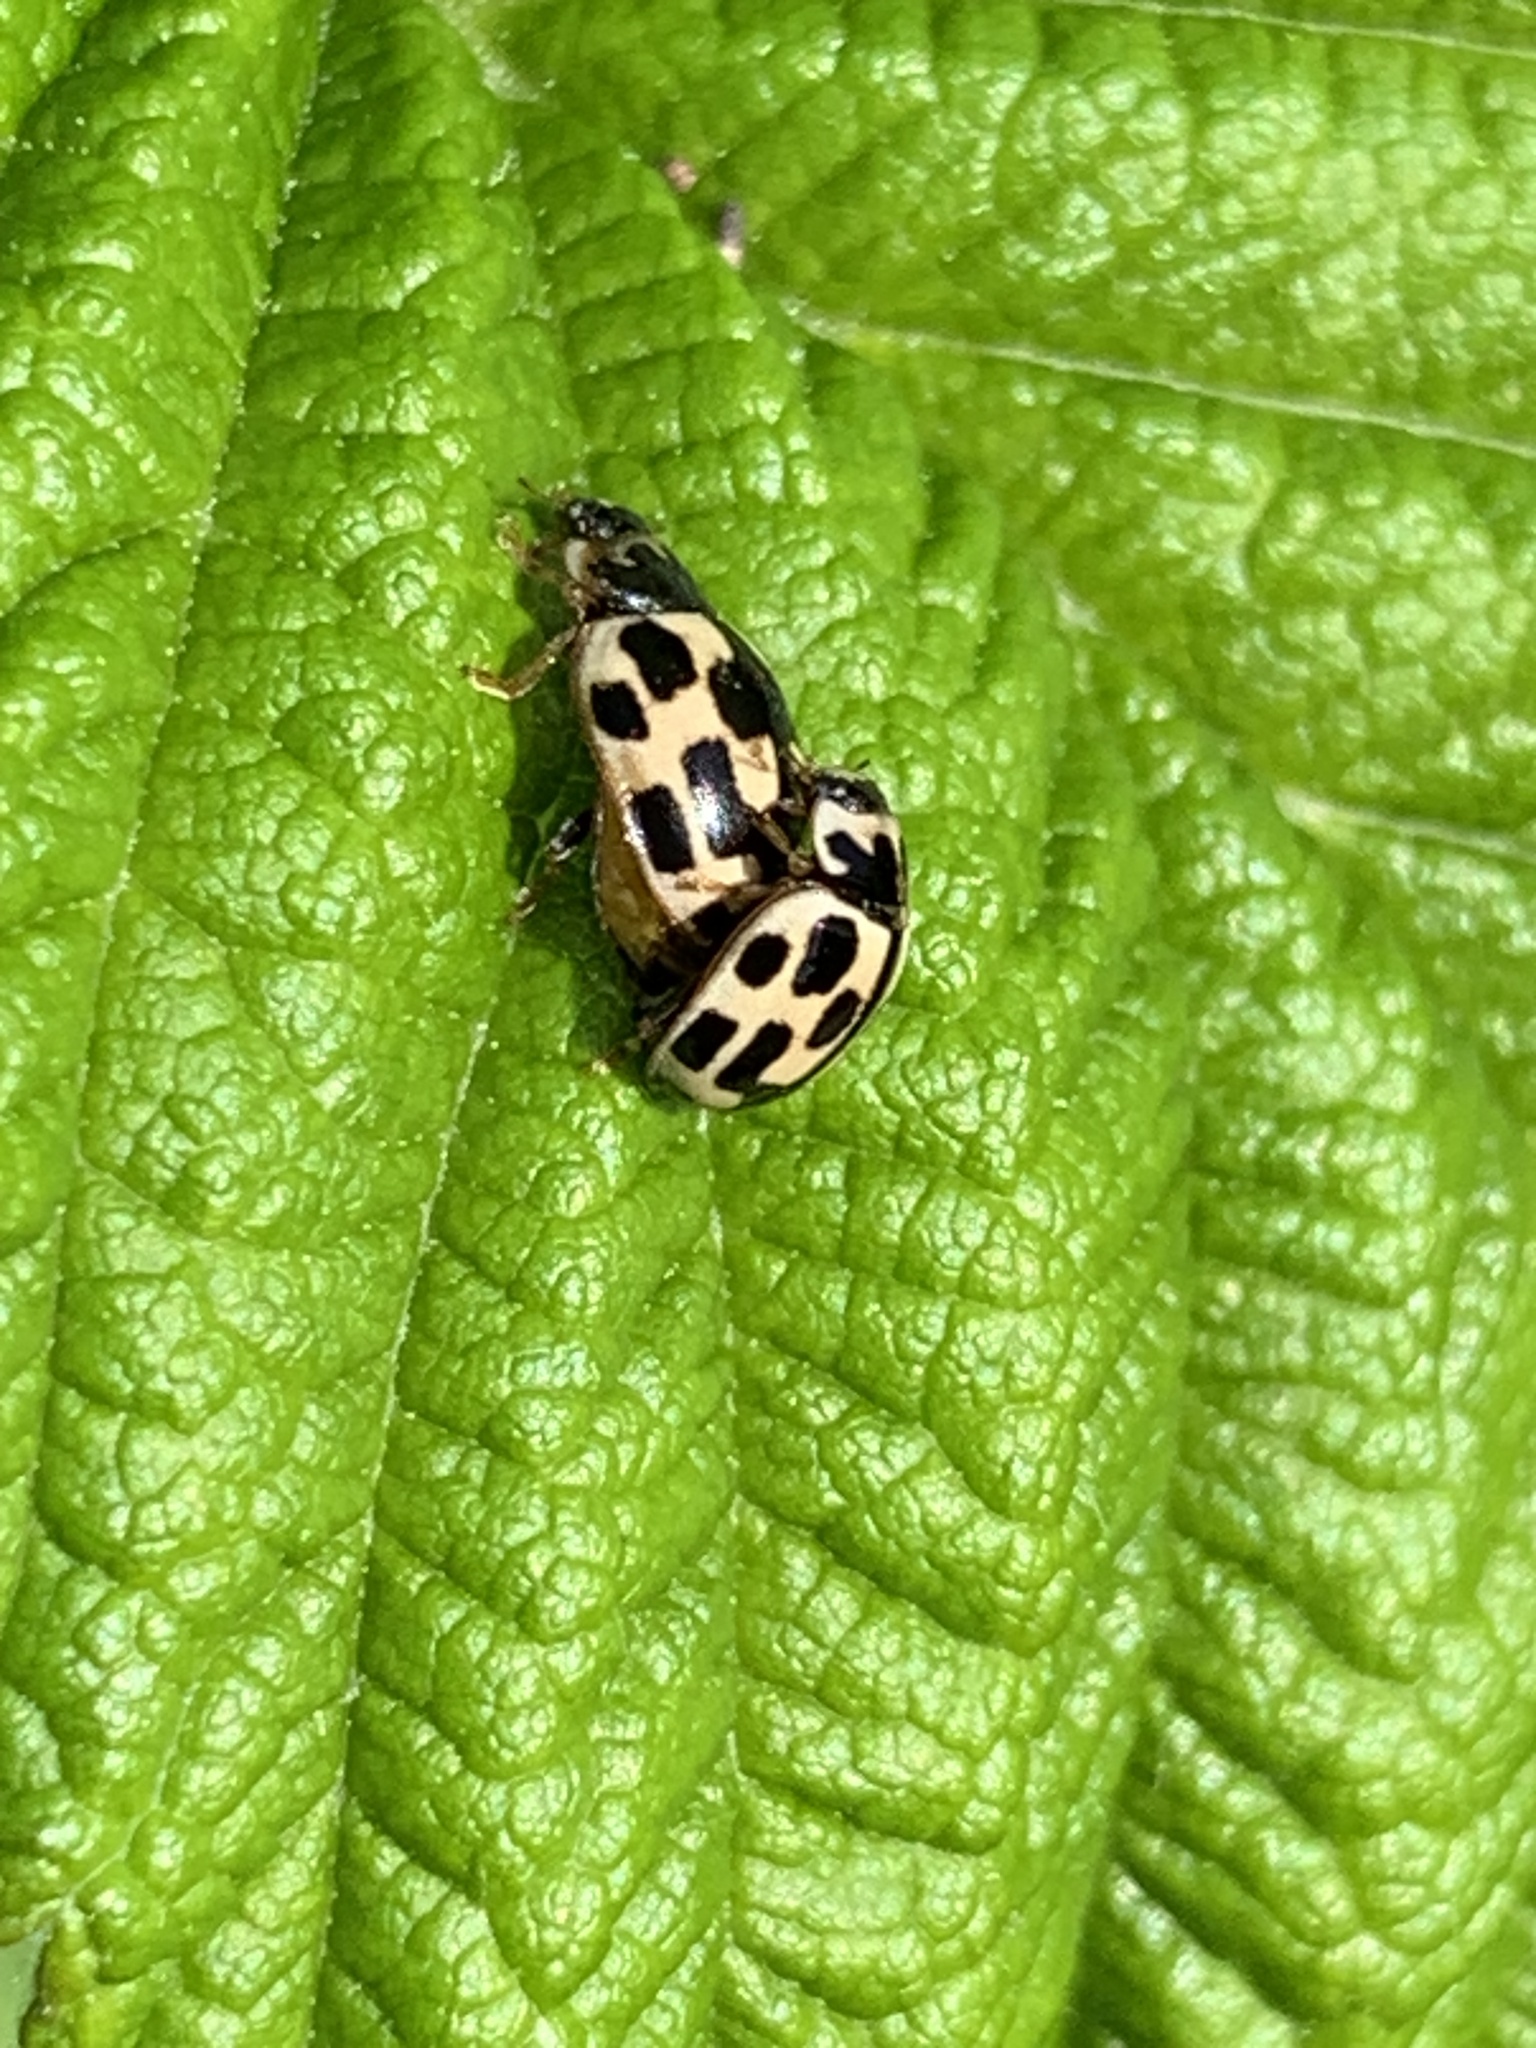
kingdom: Animalia
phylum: Arthropoda
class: Insecta
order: Coleoptera
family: Coccinellidae
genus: Propylaea
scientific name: Propylaea quatuordecimpunctata
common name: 14-spotted ladybird beetle
